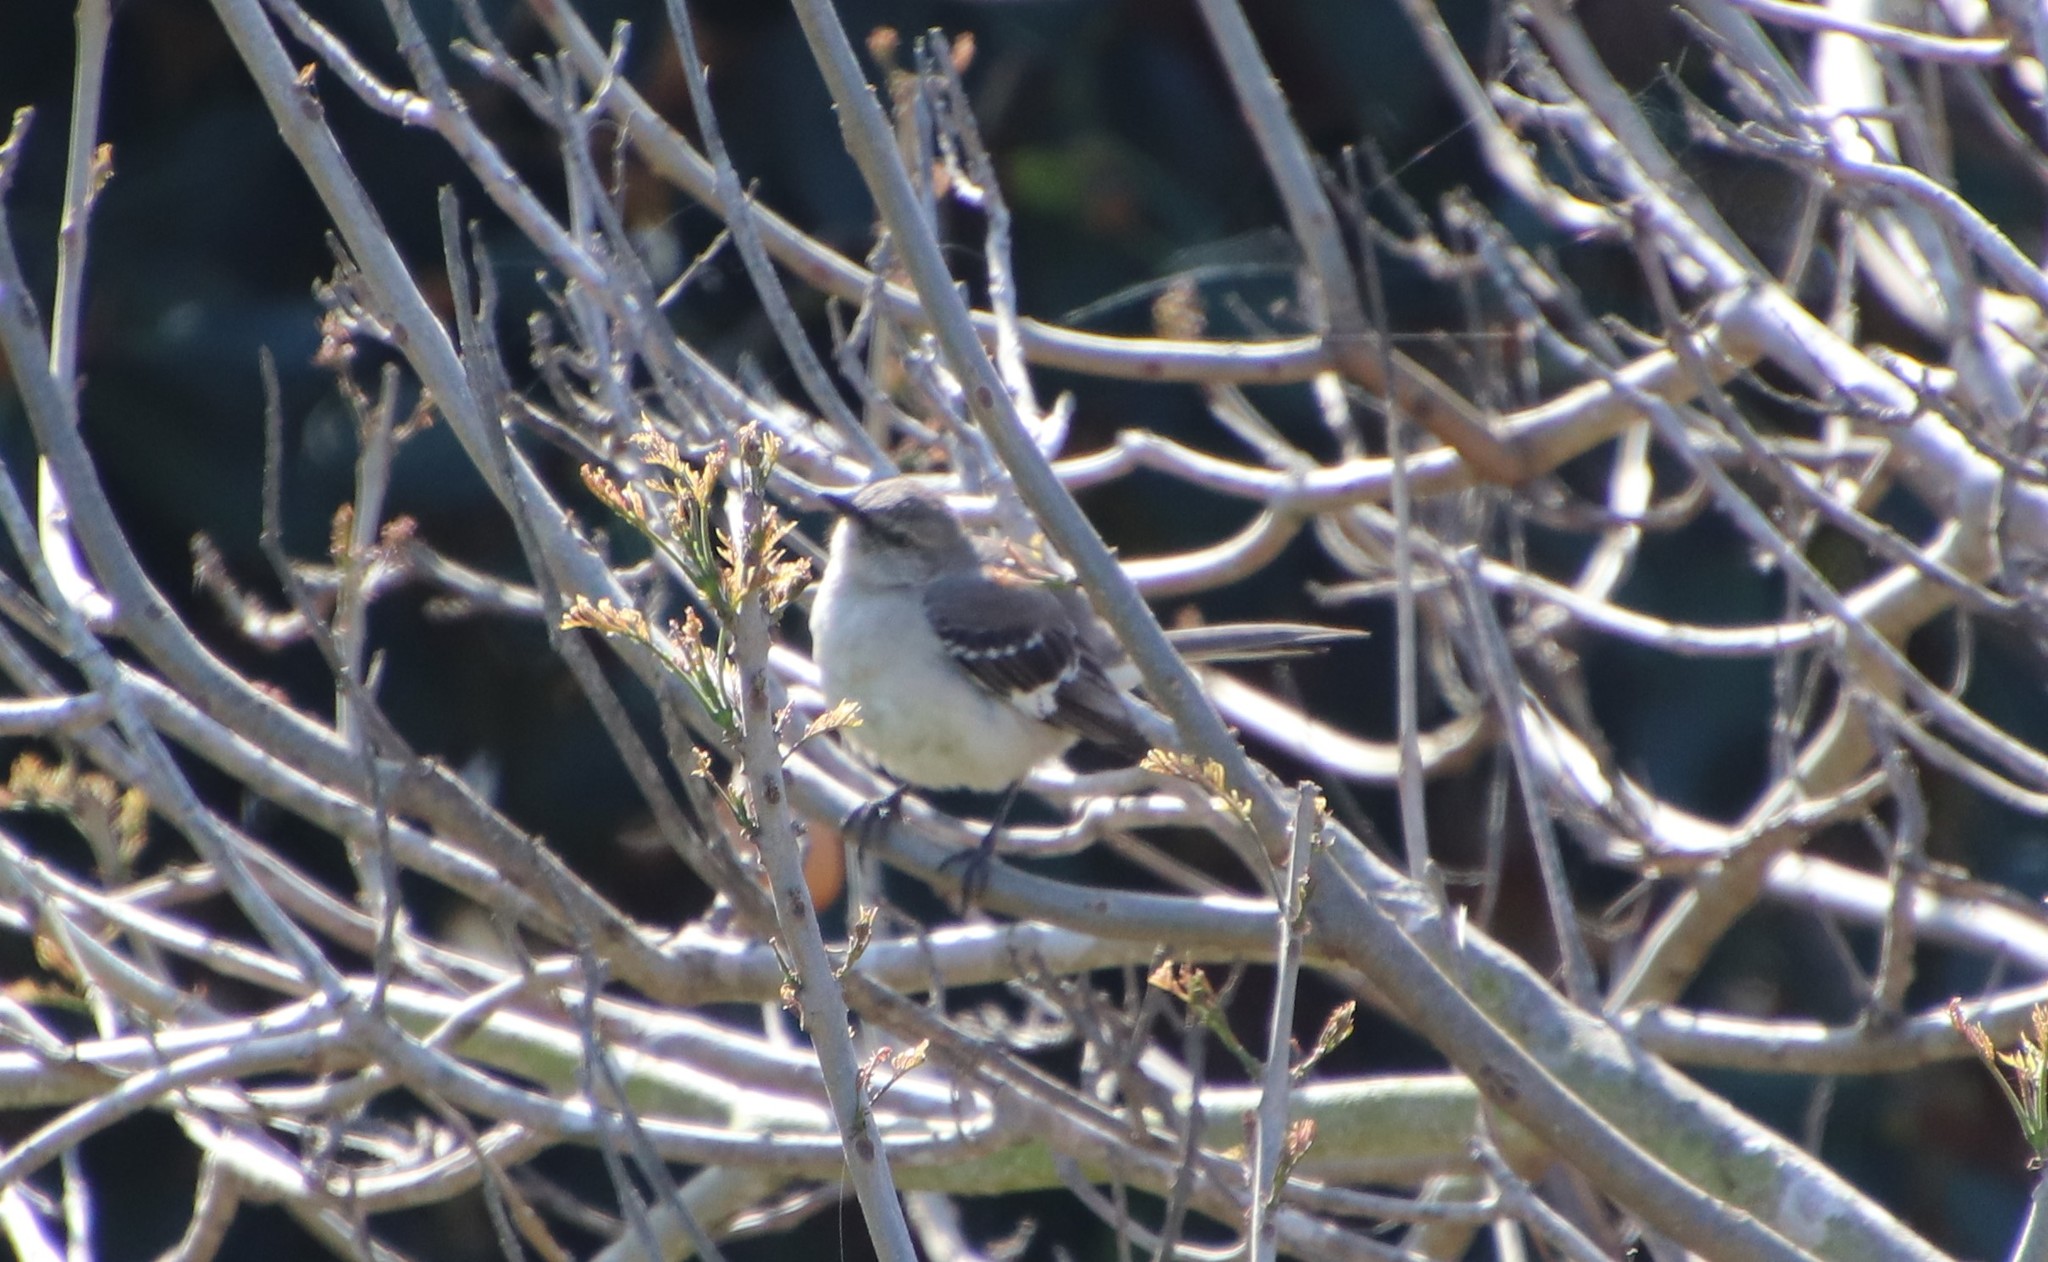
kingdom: Animalia
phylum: Chordata
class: Aves
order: Passeriformes
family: Mimidae
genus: Mimus
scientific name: Mimus polyglottos
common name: Northern mockingbird
